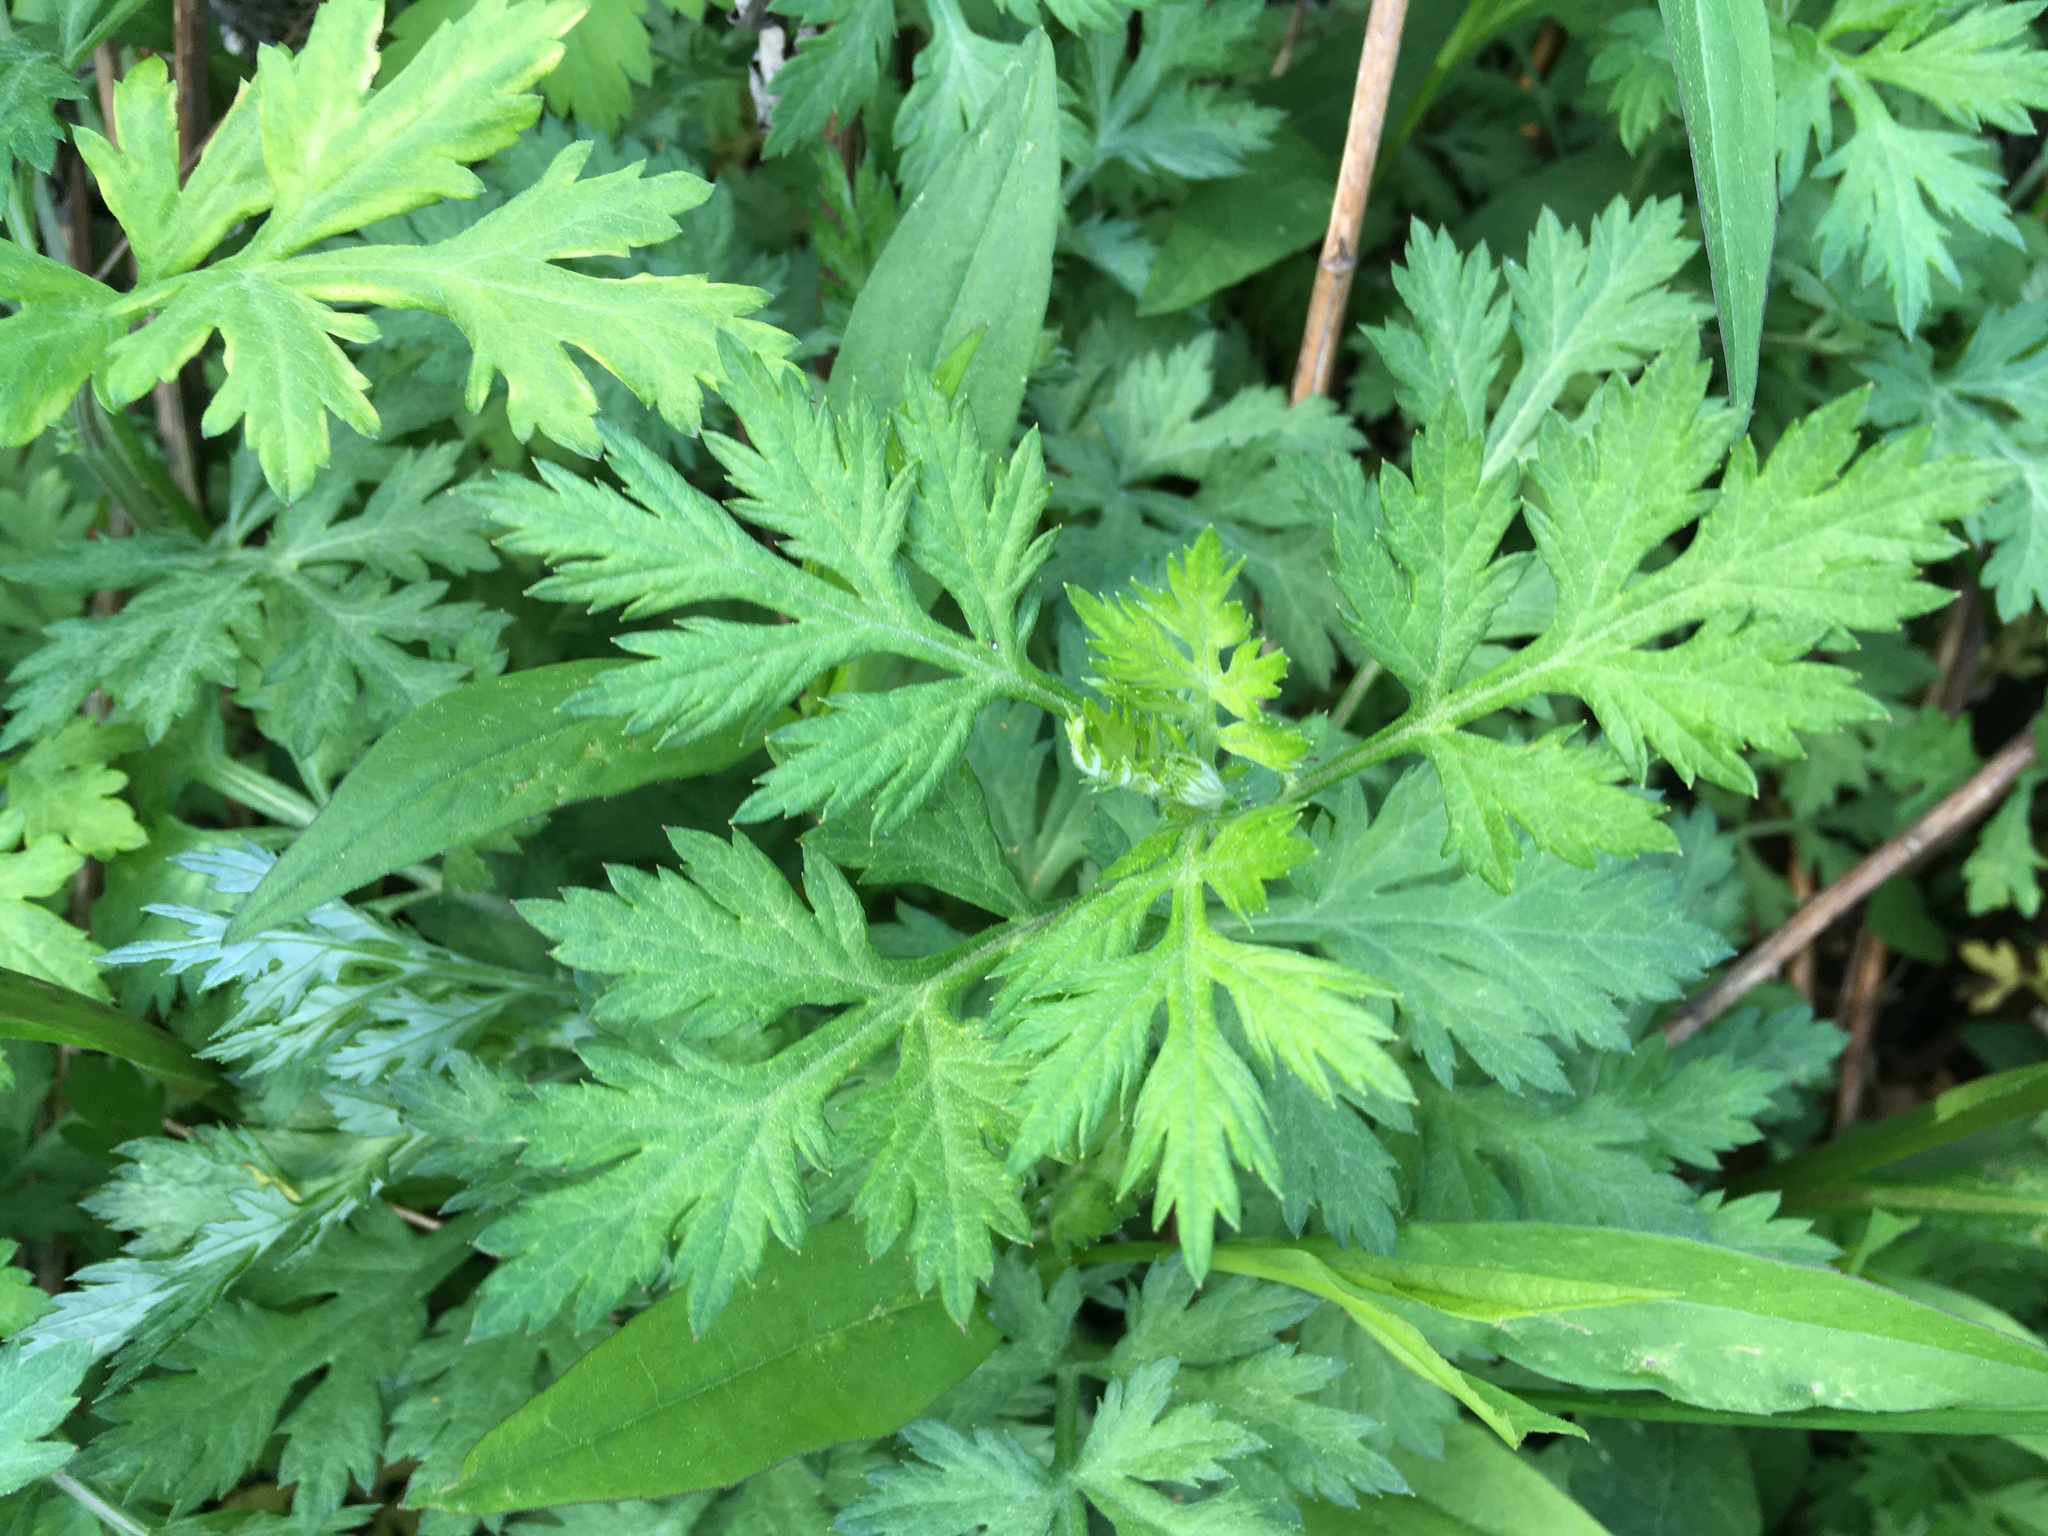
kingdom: Plantae
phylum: Tracheophyta
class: Magnoliopsida
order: Asterales
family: Asteraceae
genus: Artemisia
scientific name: Artemisia vulgaris
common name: Mugwort
